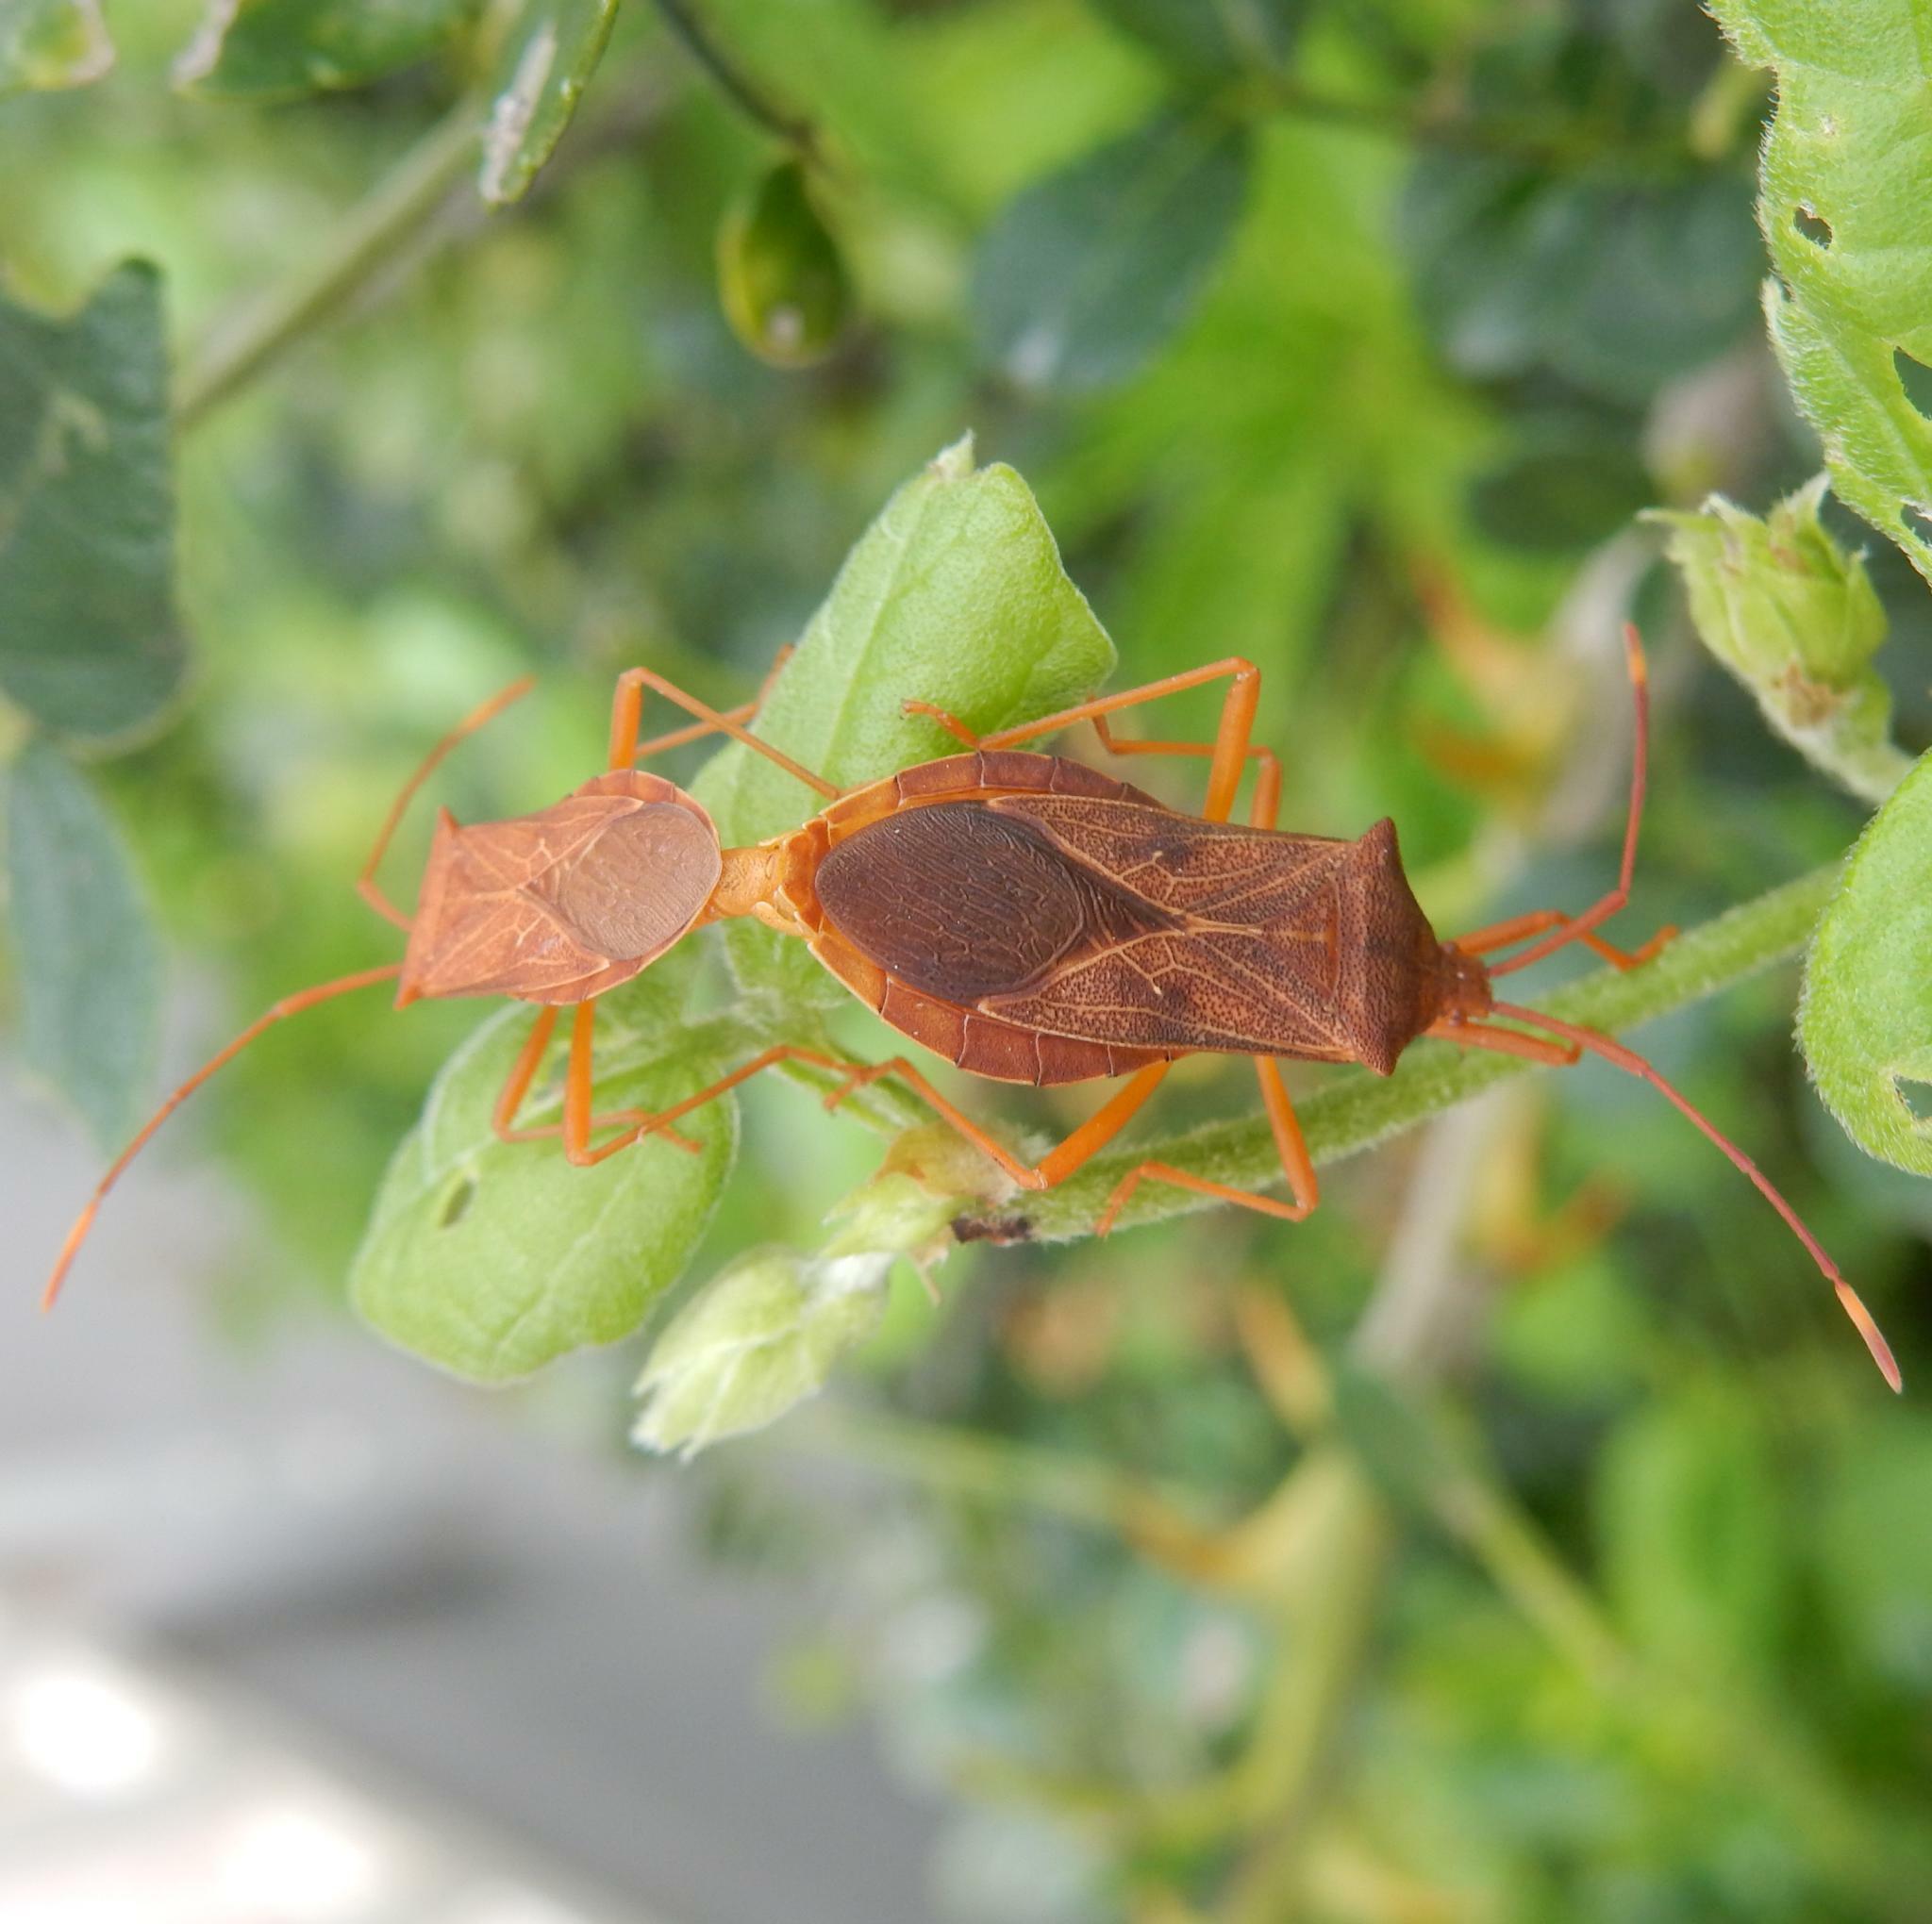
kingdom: Animalia
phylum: Arthropoda
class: Insecta
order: Hemiptera
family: Coreidae
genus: Latimbus
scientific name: Latimbus concolor
